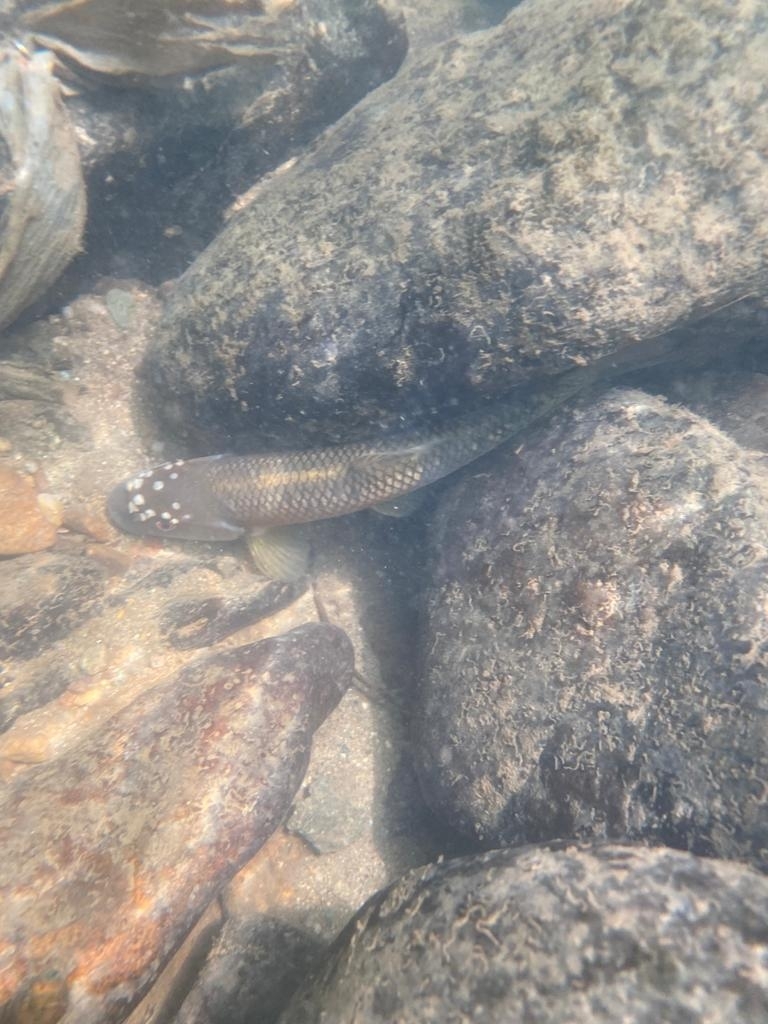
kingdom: Animalia
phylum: Chordata
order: Cypriniformes
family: Cyprinidae
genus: Nocomis
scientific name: Nocomis leptocephalus
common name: Bluehead chub
